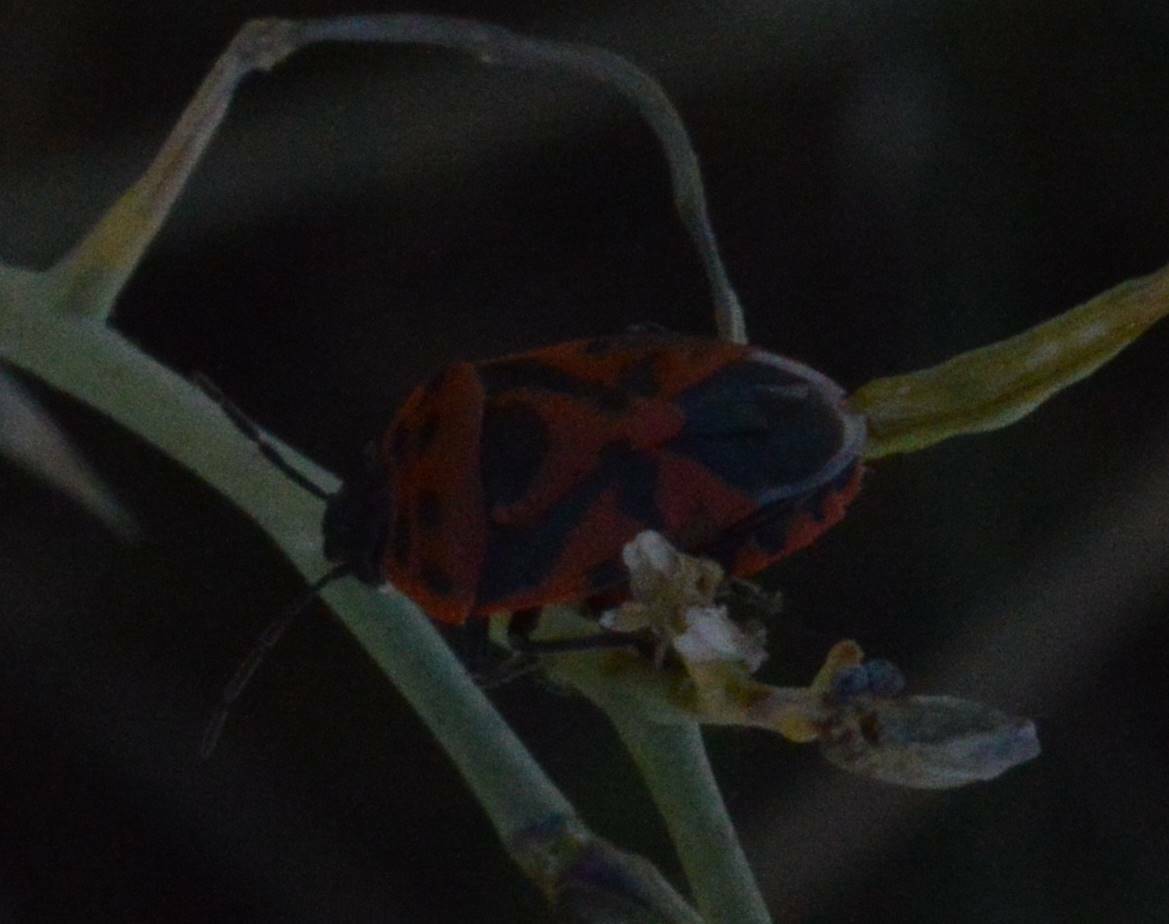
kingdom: Animalia
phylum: Arthropoda
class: Insecta
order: Hemiptera
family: Pentatomidae
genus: Eurydema
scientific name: Eurydema ornata
